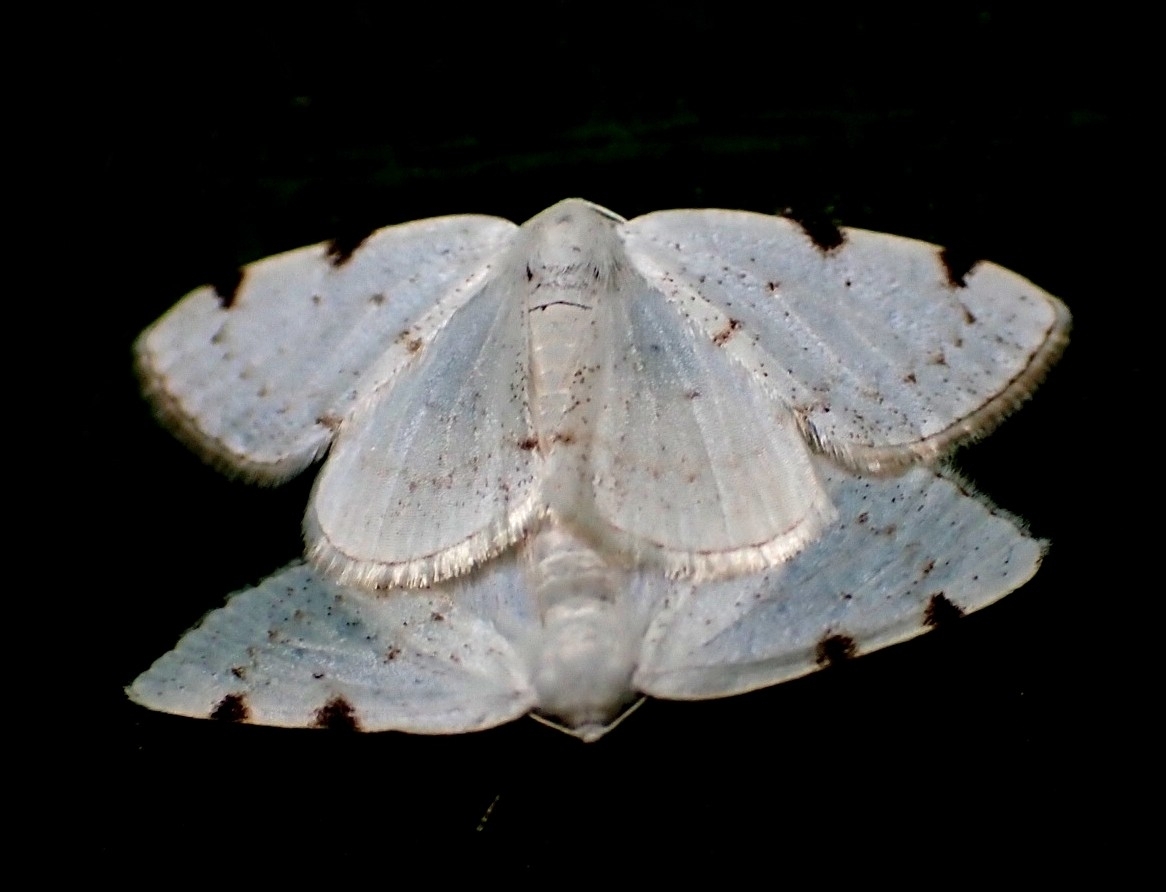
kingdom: Animalia
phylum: Arthropoda
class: Insecta
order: Lepidoptera
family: Geometridae
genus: Lomographa
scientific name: Lomographa bimaculata
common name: White-pinion spotted
